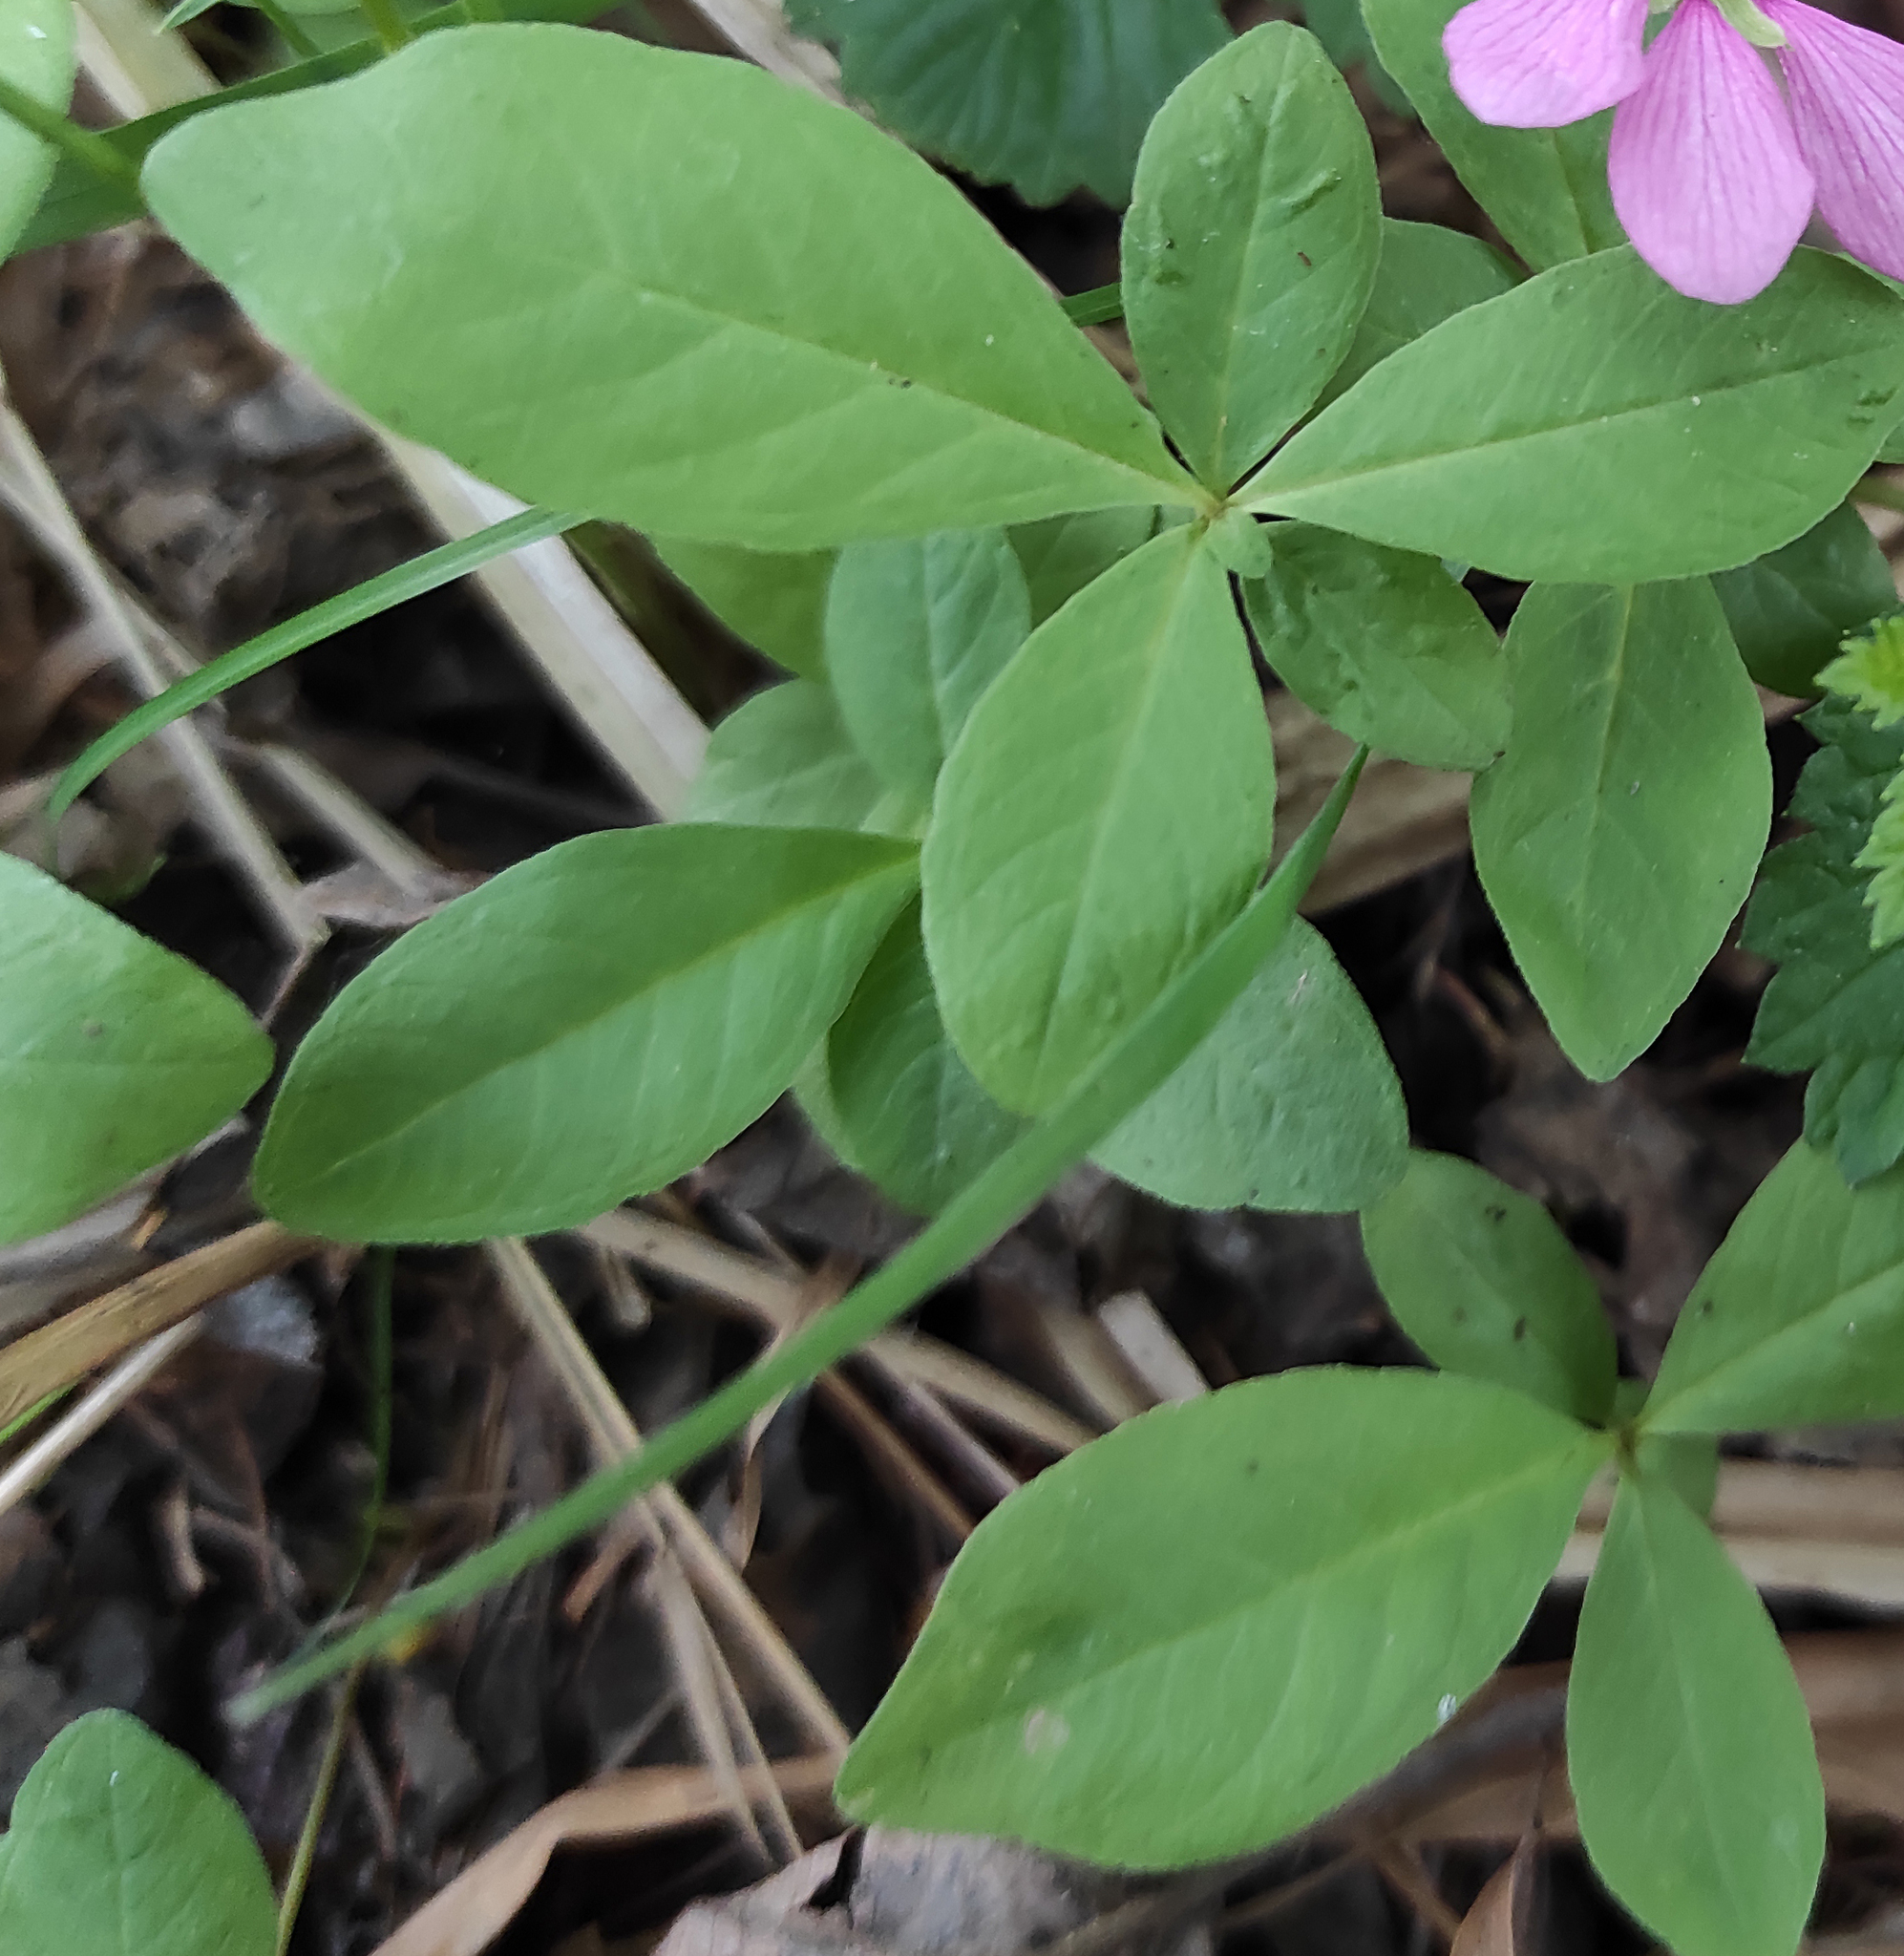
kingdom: Plantae
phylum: Tracheophyta
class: Magnoliopsida
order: Ericales
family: Primulaceae
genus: Lysimachia
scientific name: Lysimachia europaea
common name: Arctic starflower
